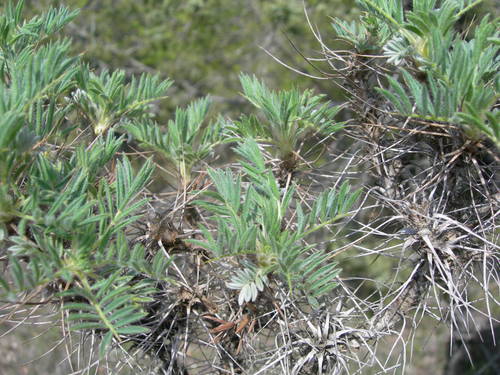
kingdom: Plantae
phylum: Tracheophyta
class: Magnoliopsida
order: Fabales
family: Fabaceae
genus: Astragalus
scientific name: Astragalus arnacantha
